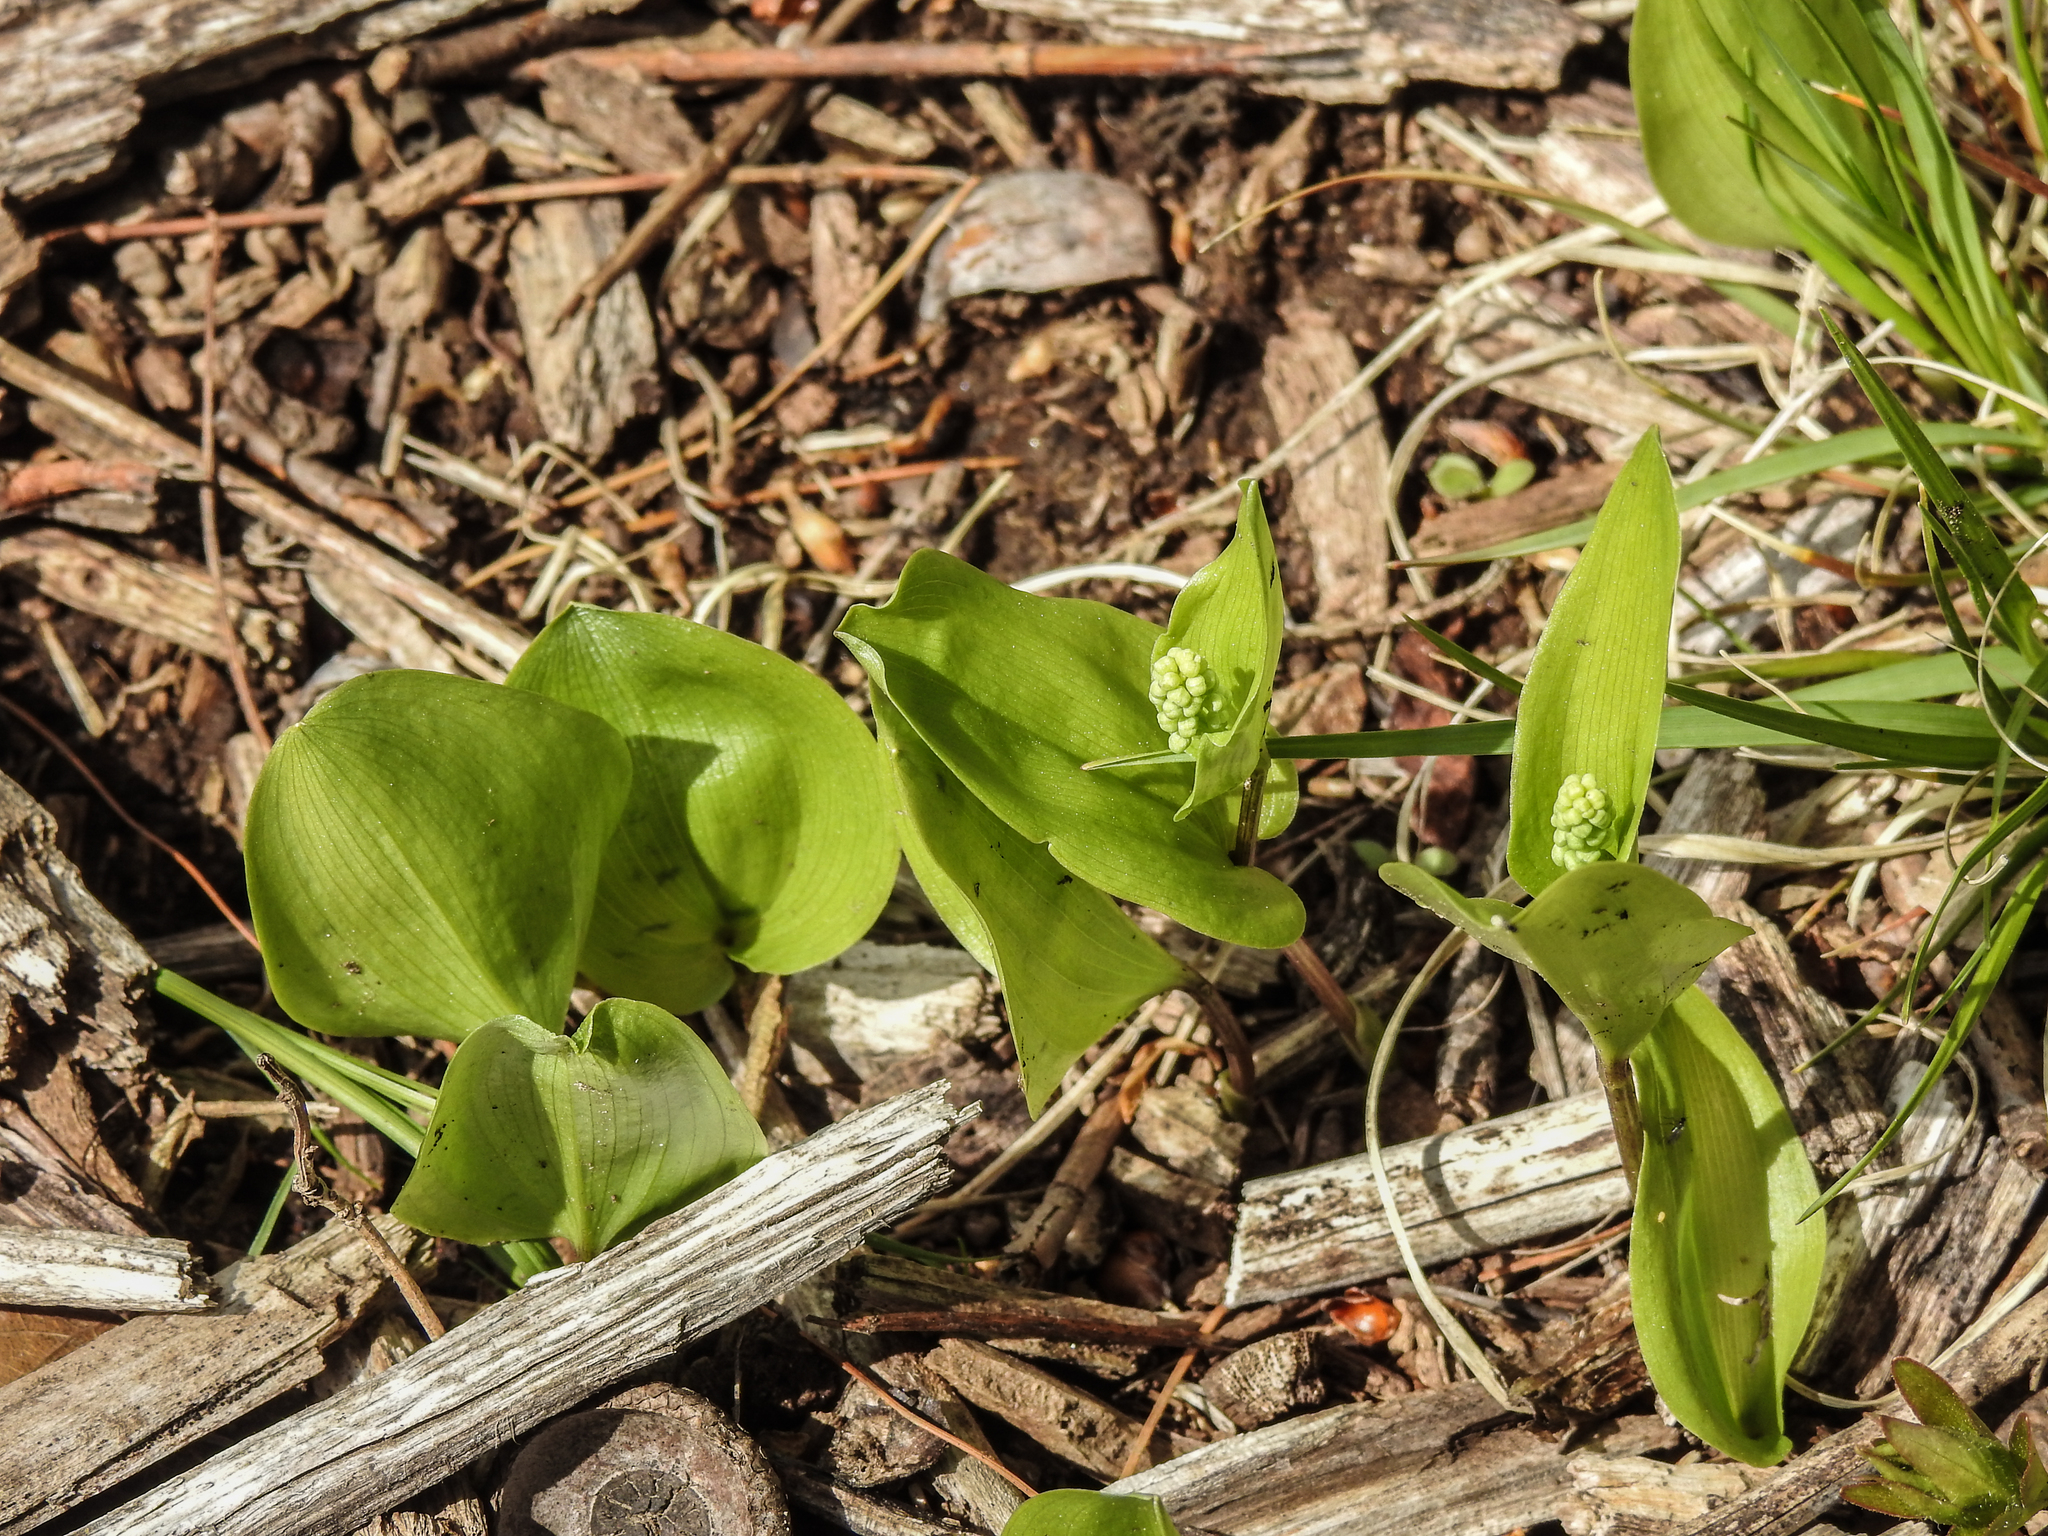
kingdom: Plantae
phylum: Tracheophyta
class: Liliopsida
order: Asparagales
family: Asparagaceae
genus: Maianthemum
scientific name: Maianthemum canadense
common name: False lily-of-the-valley
